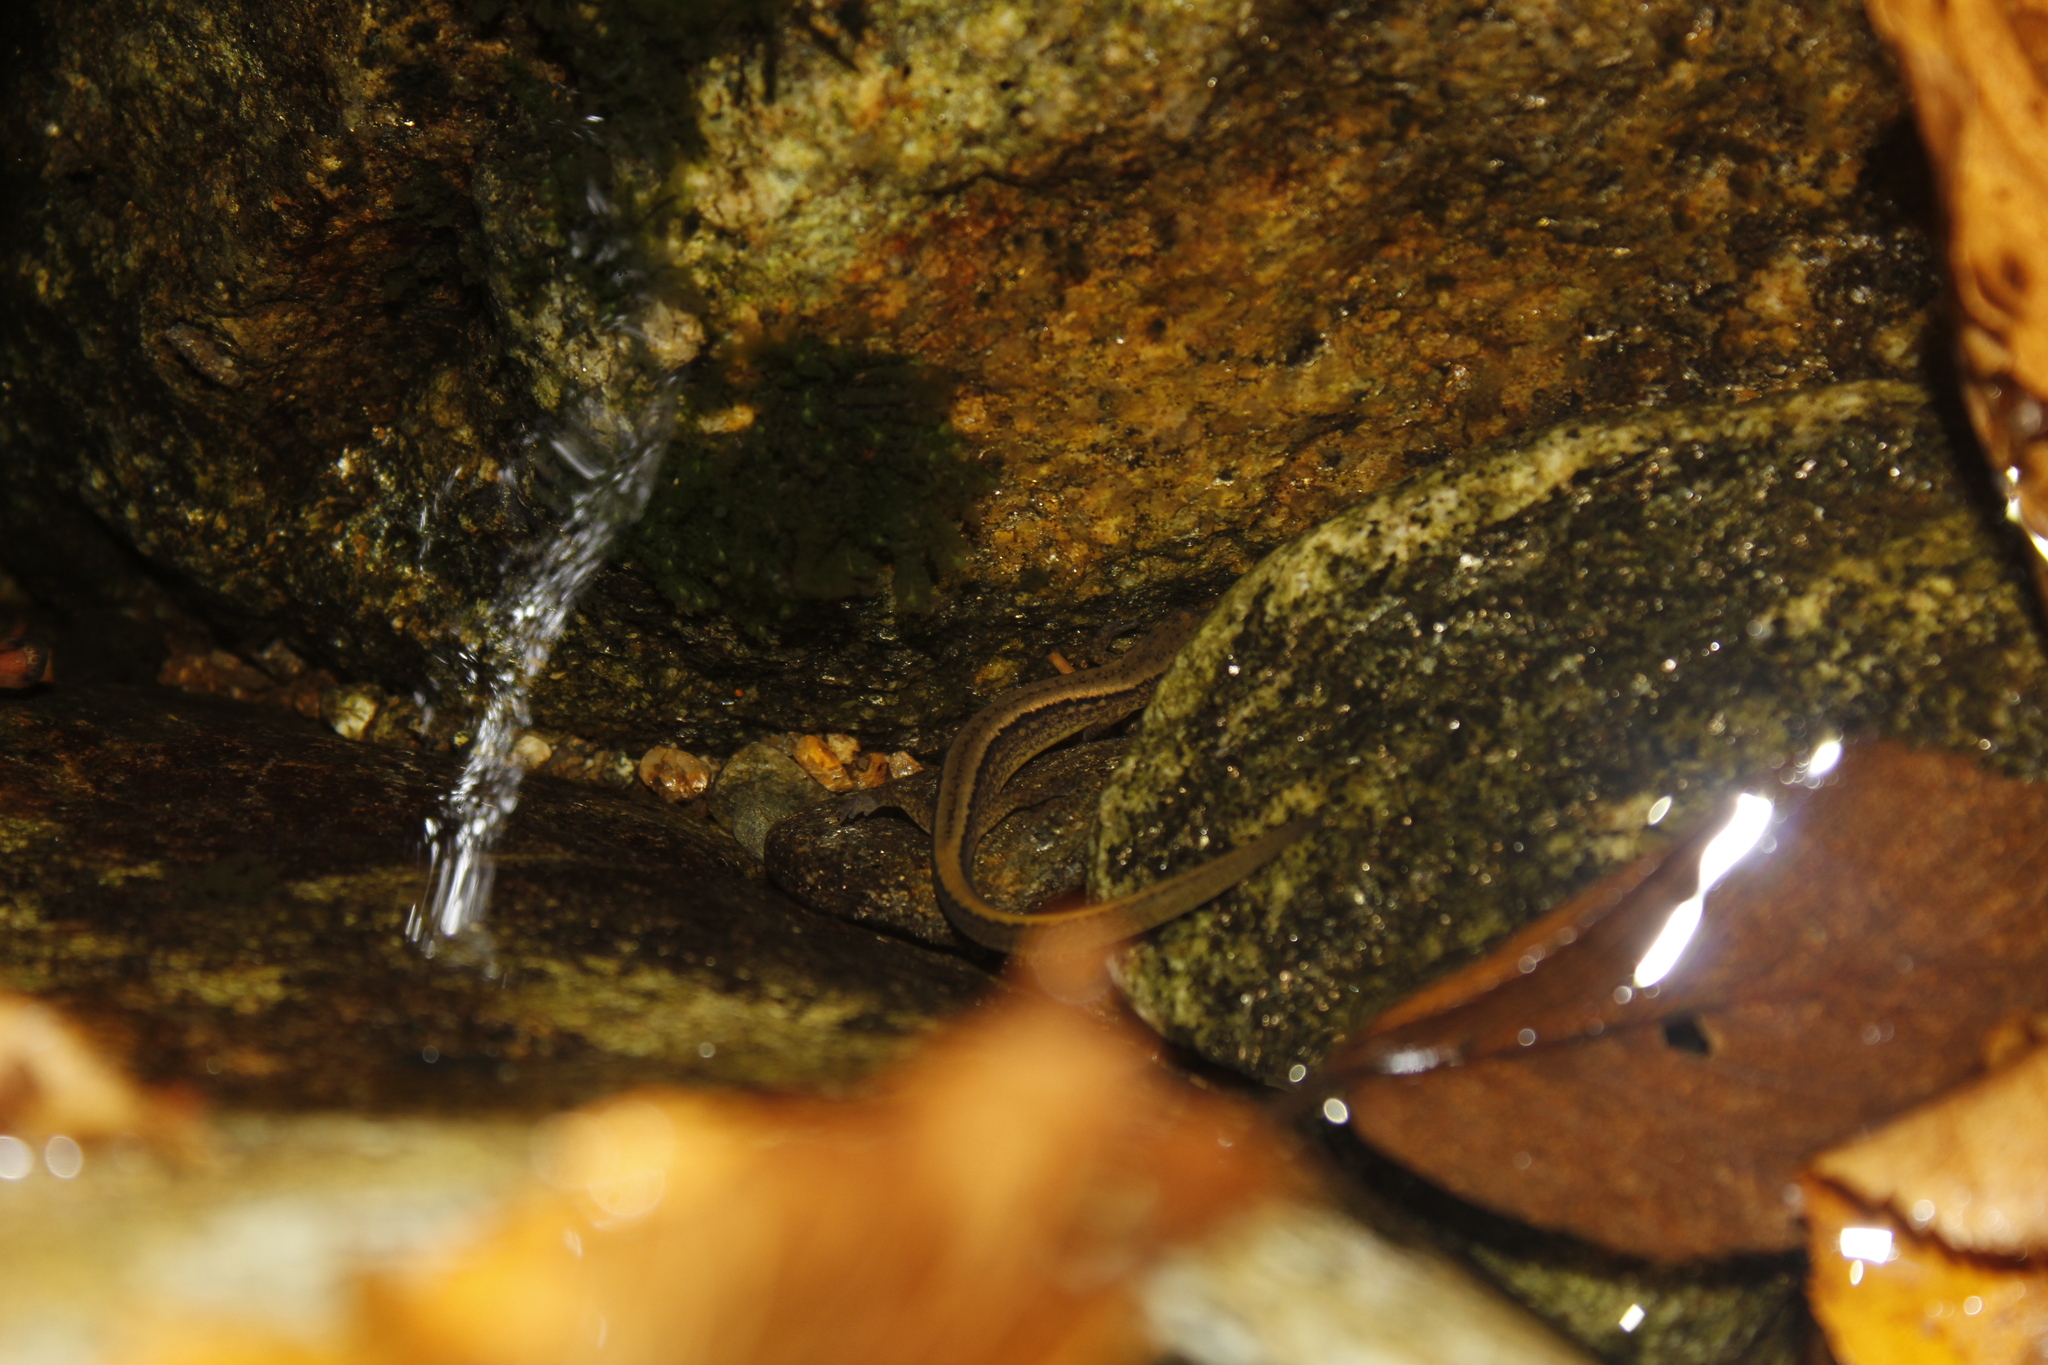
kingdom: Animalia
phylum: Chordata
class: Amphibia
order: Caudata
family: Plethodontidae
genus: Eurycea
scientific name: Eurycea bislineata
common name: Northern two-lined salamander
